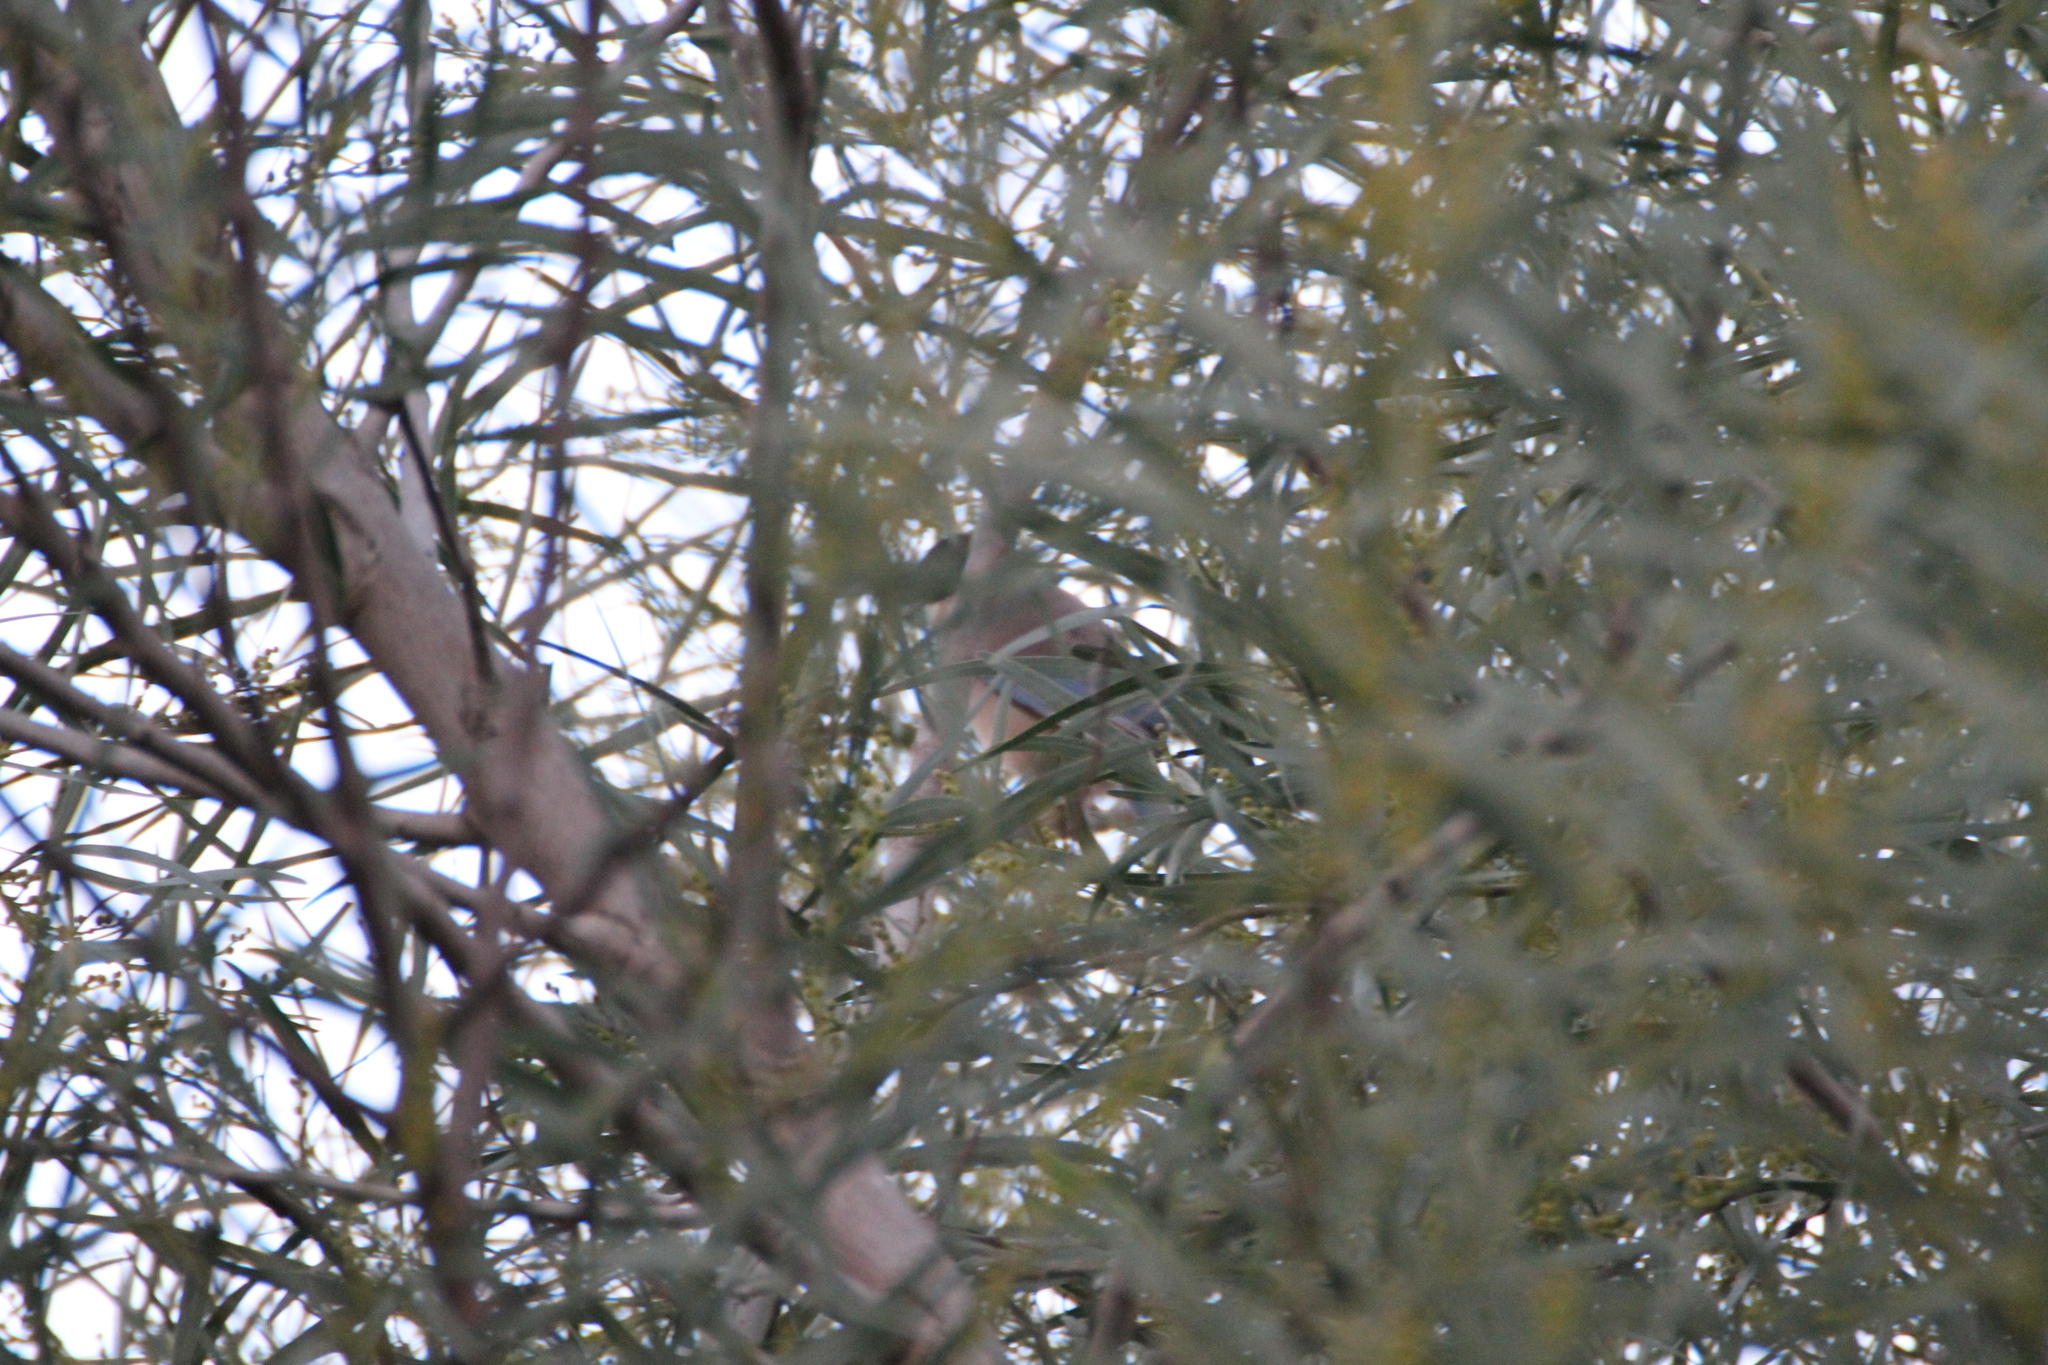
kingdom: Animalia
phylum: Chordata
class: Aves
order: Passeriformes
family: Corvidae
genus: Cyanopica
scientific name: Cyanopica cooki
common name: Iberian magpie
